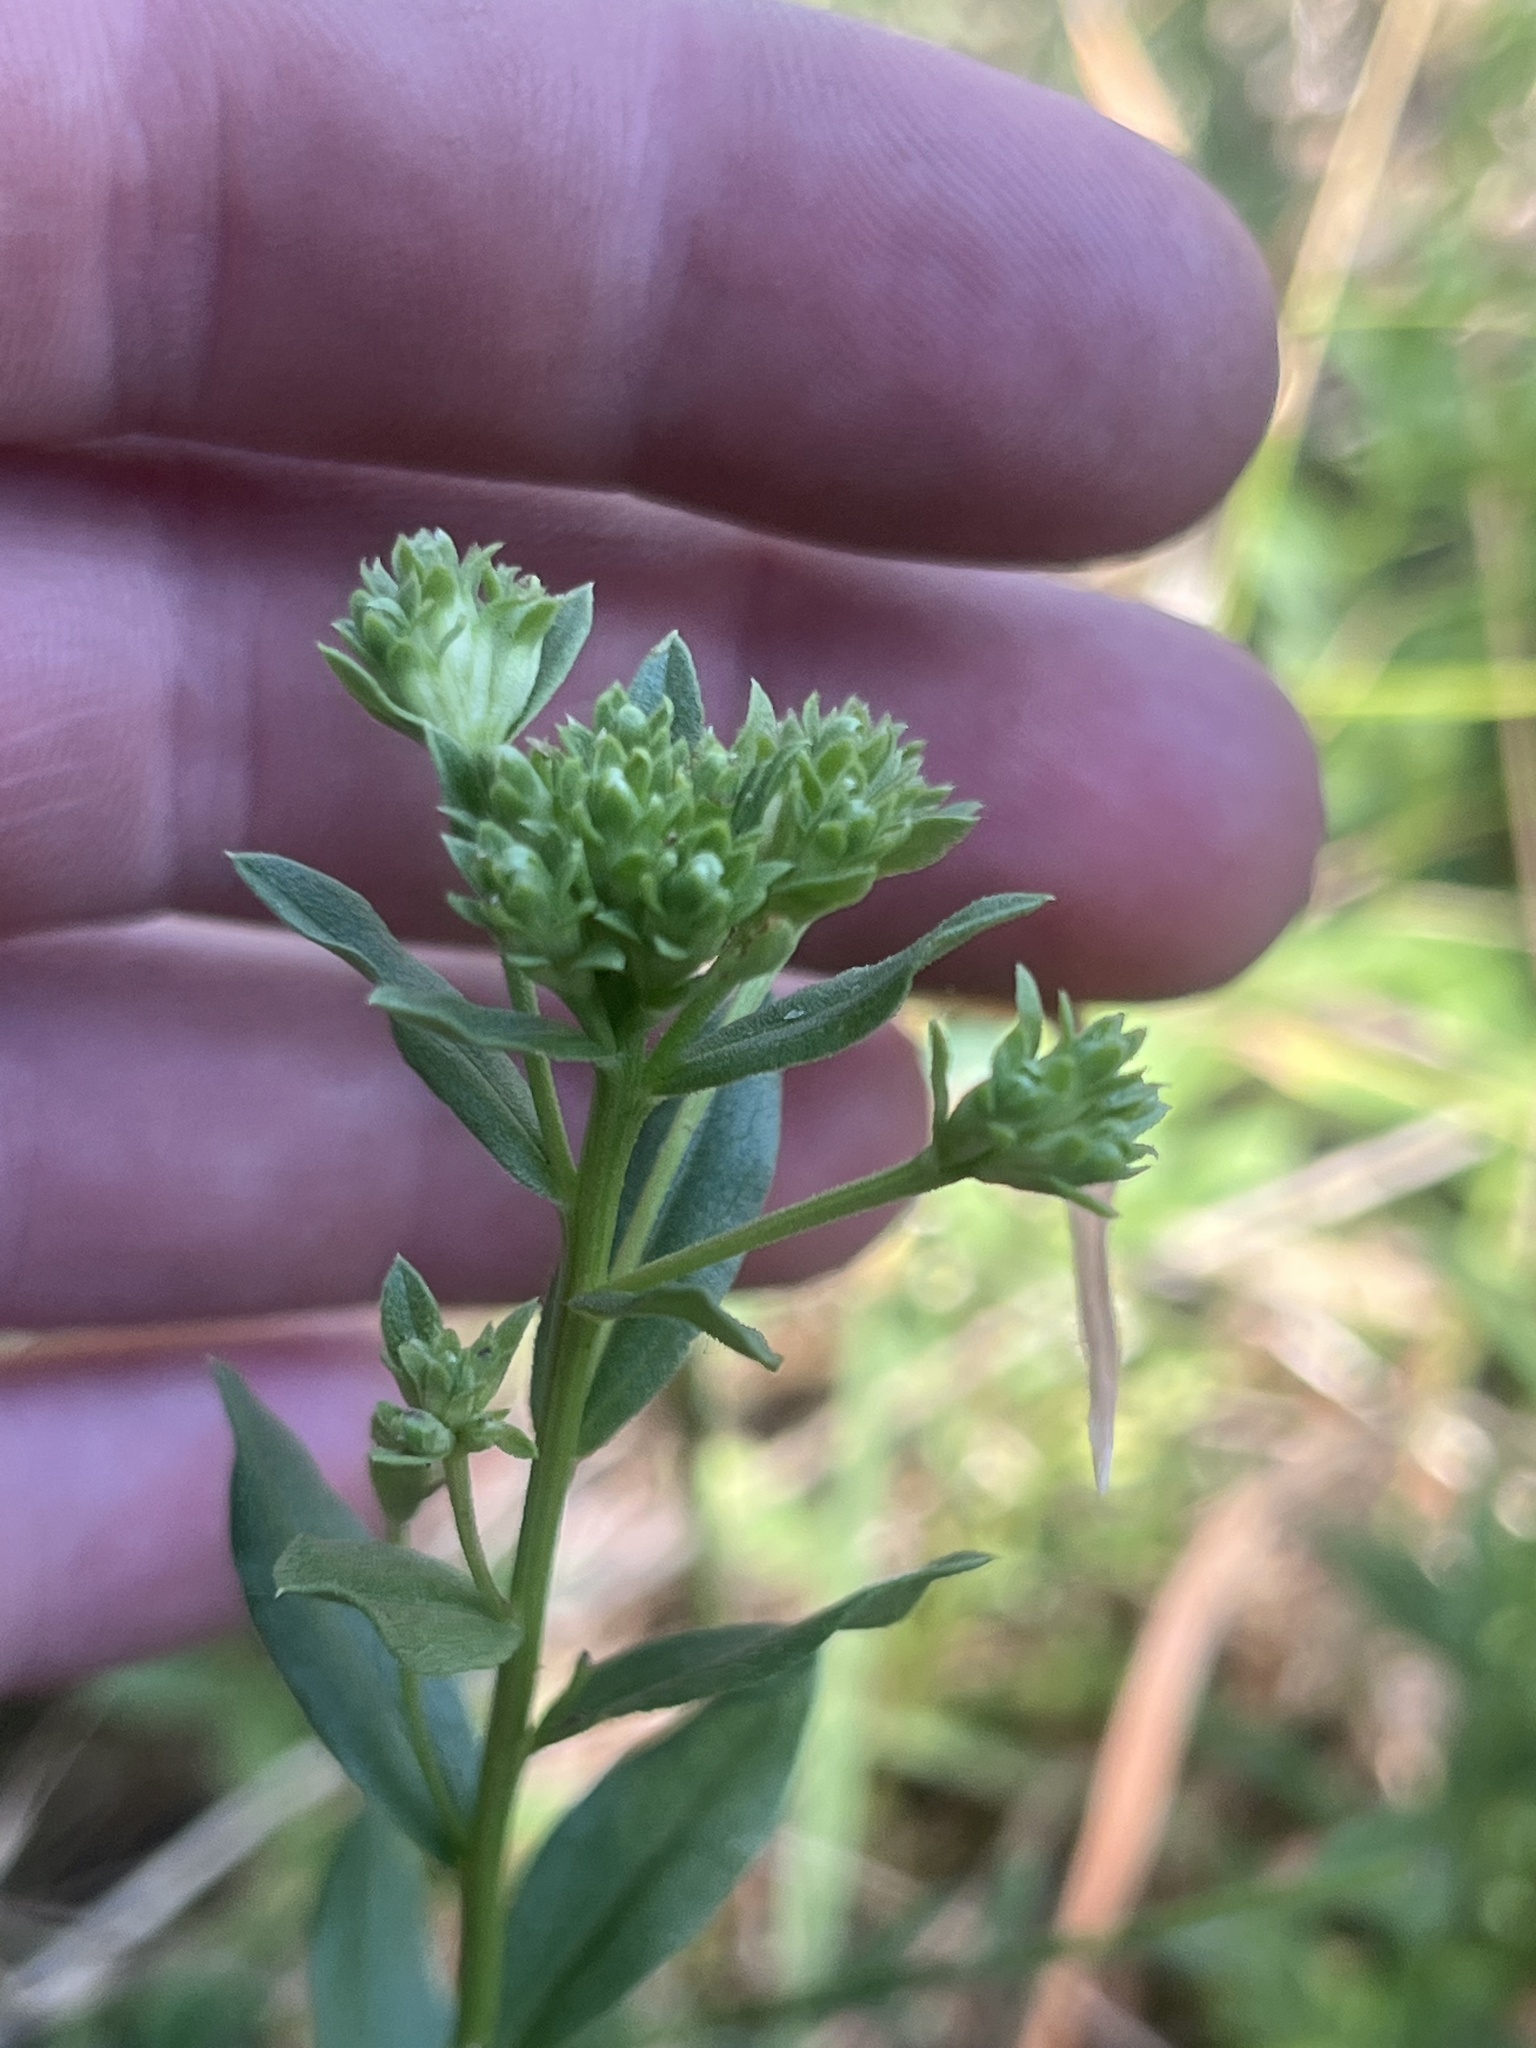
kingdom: Plantae
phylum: Tracheophyta
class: Magnoliopsida
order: Asterales
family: Asteraceae
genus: Sericocarpus
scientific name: Sericocarpus rigidus
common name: Columbia white-top aster
